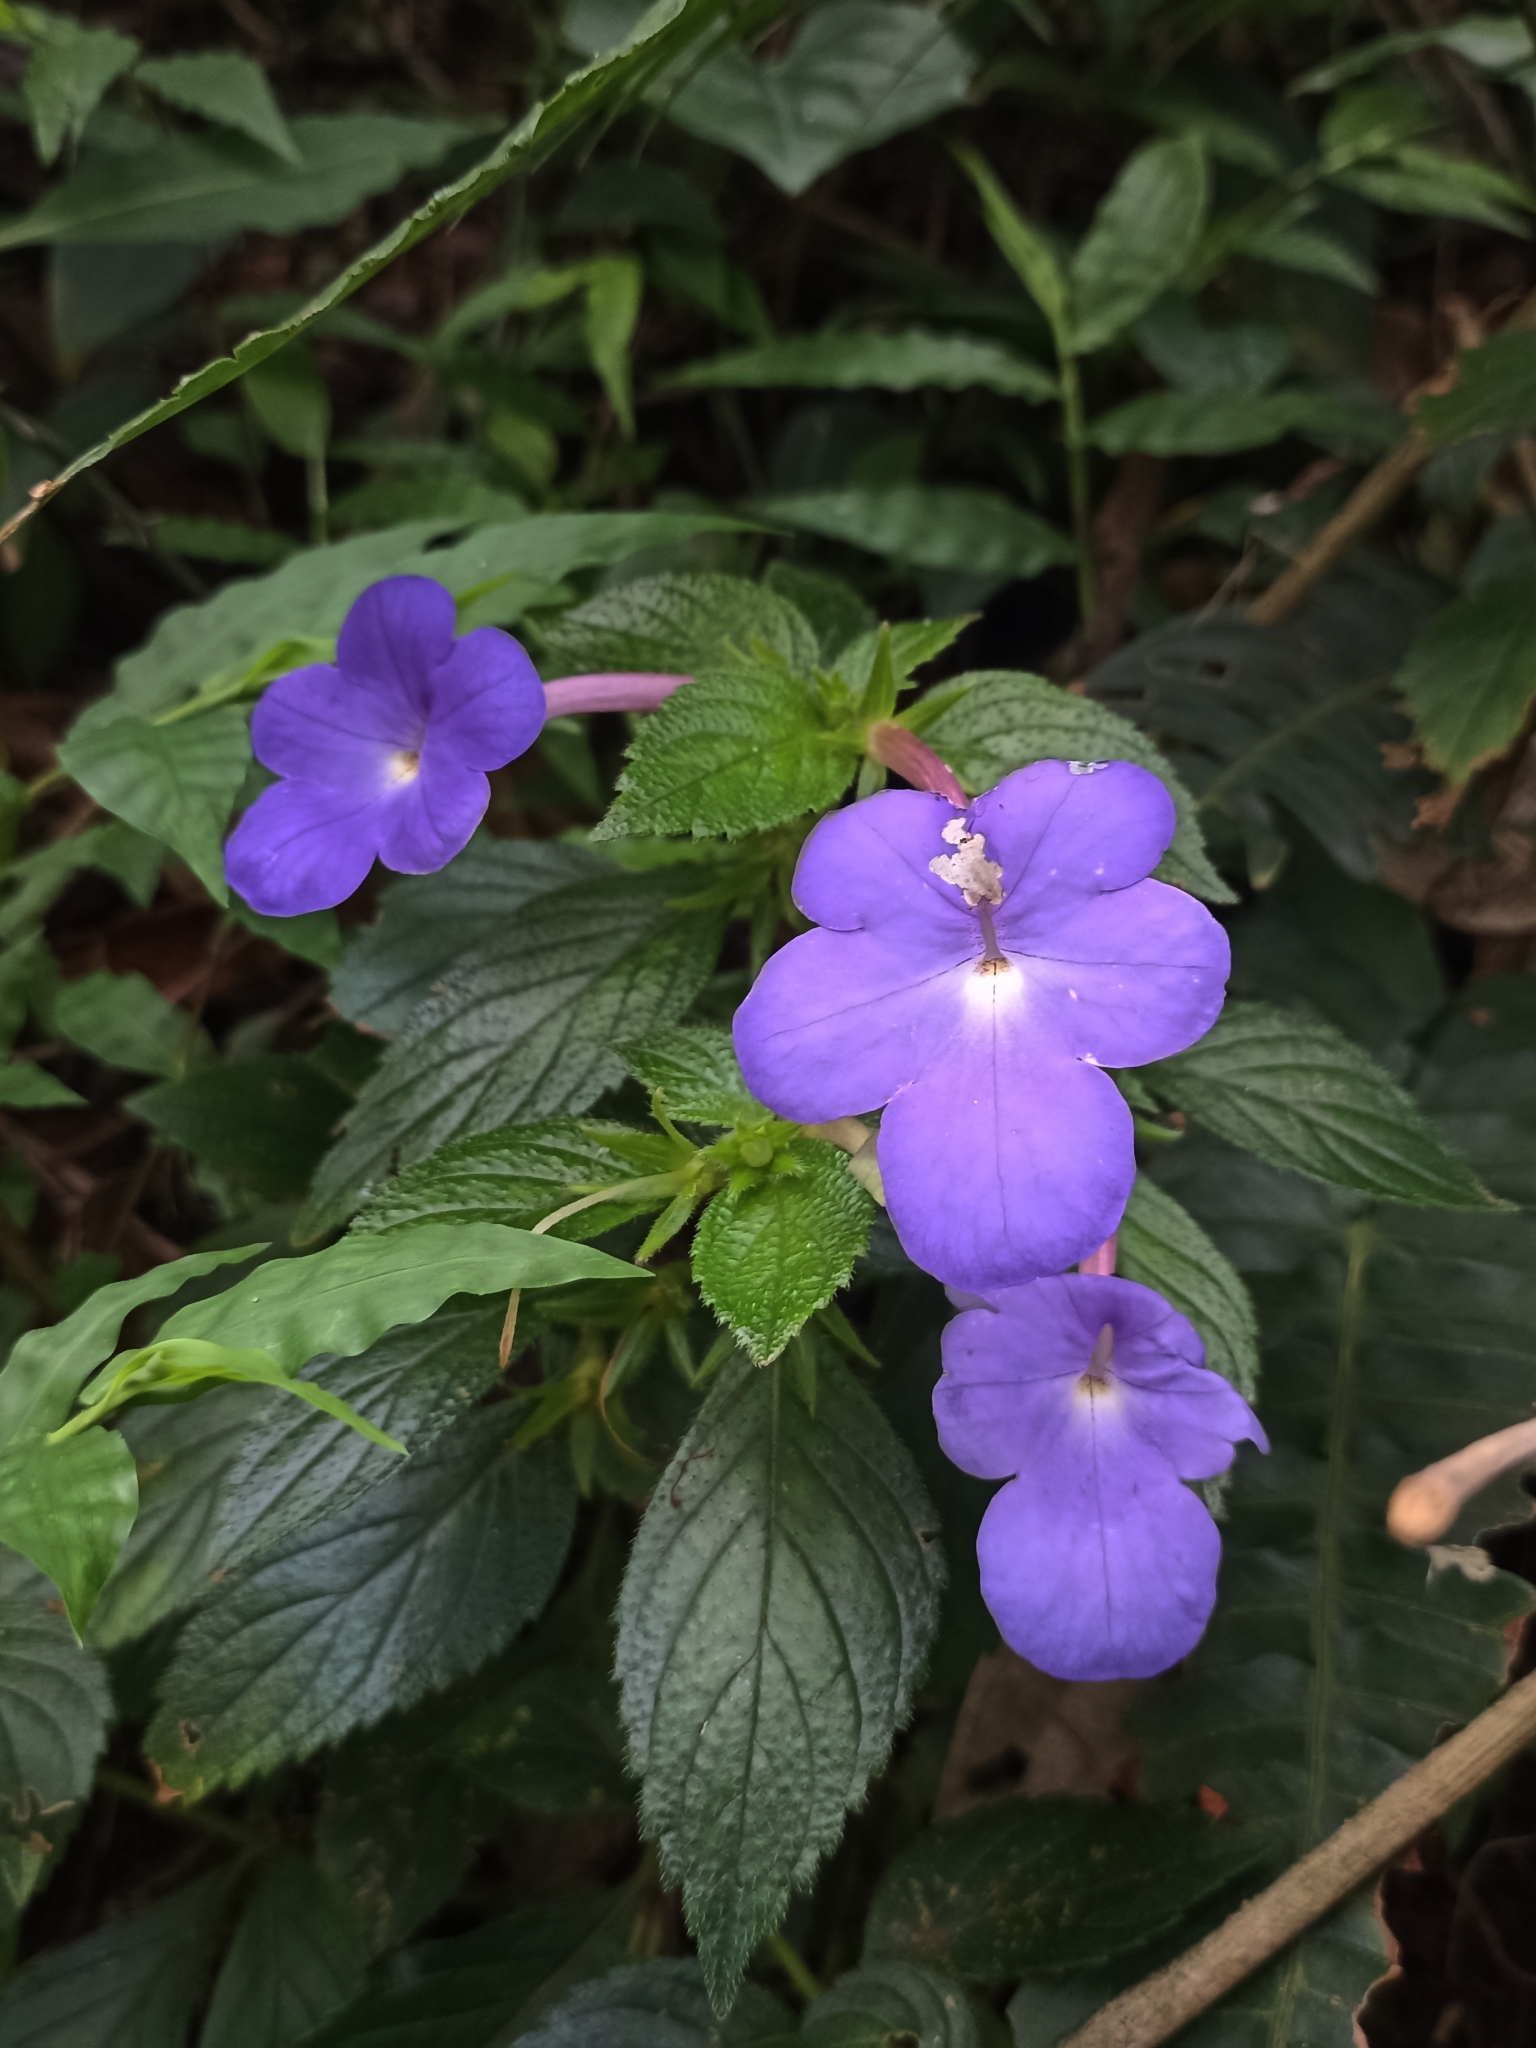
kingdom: Plantae
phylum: Tracheophyta
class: Magnoliopsida
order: Lamiales
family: Gesneriaceae
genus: Achimenes
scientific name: Achimenes longiflora
